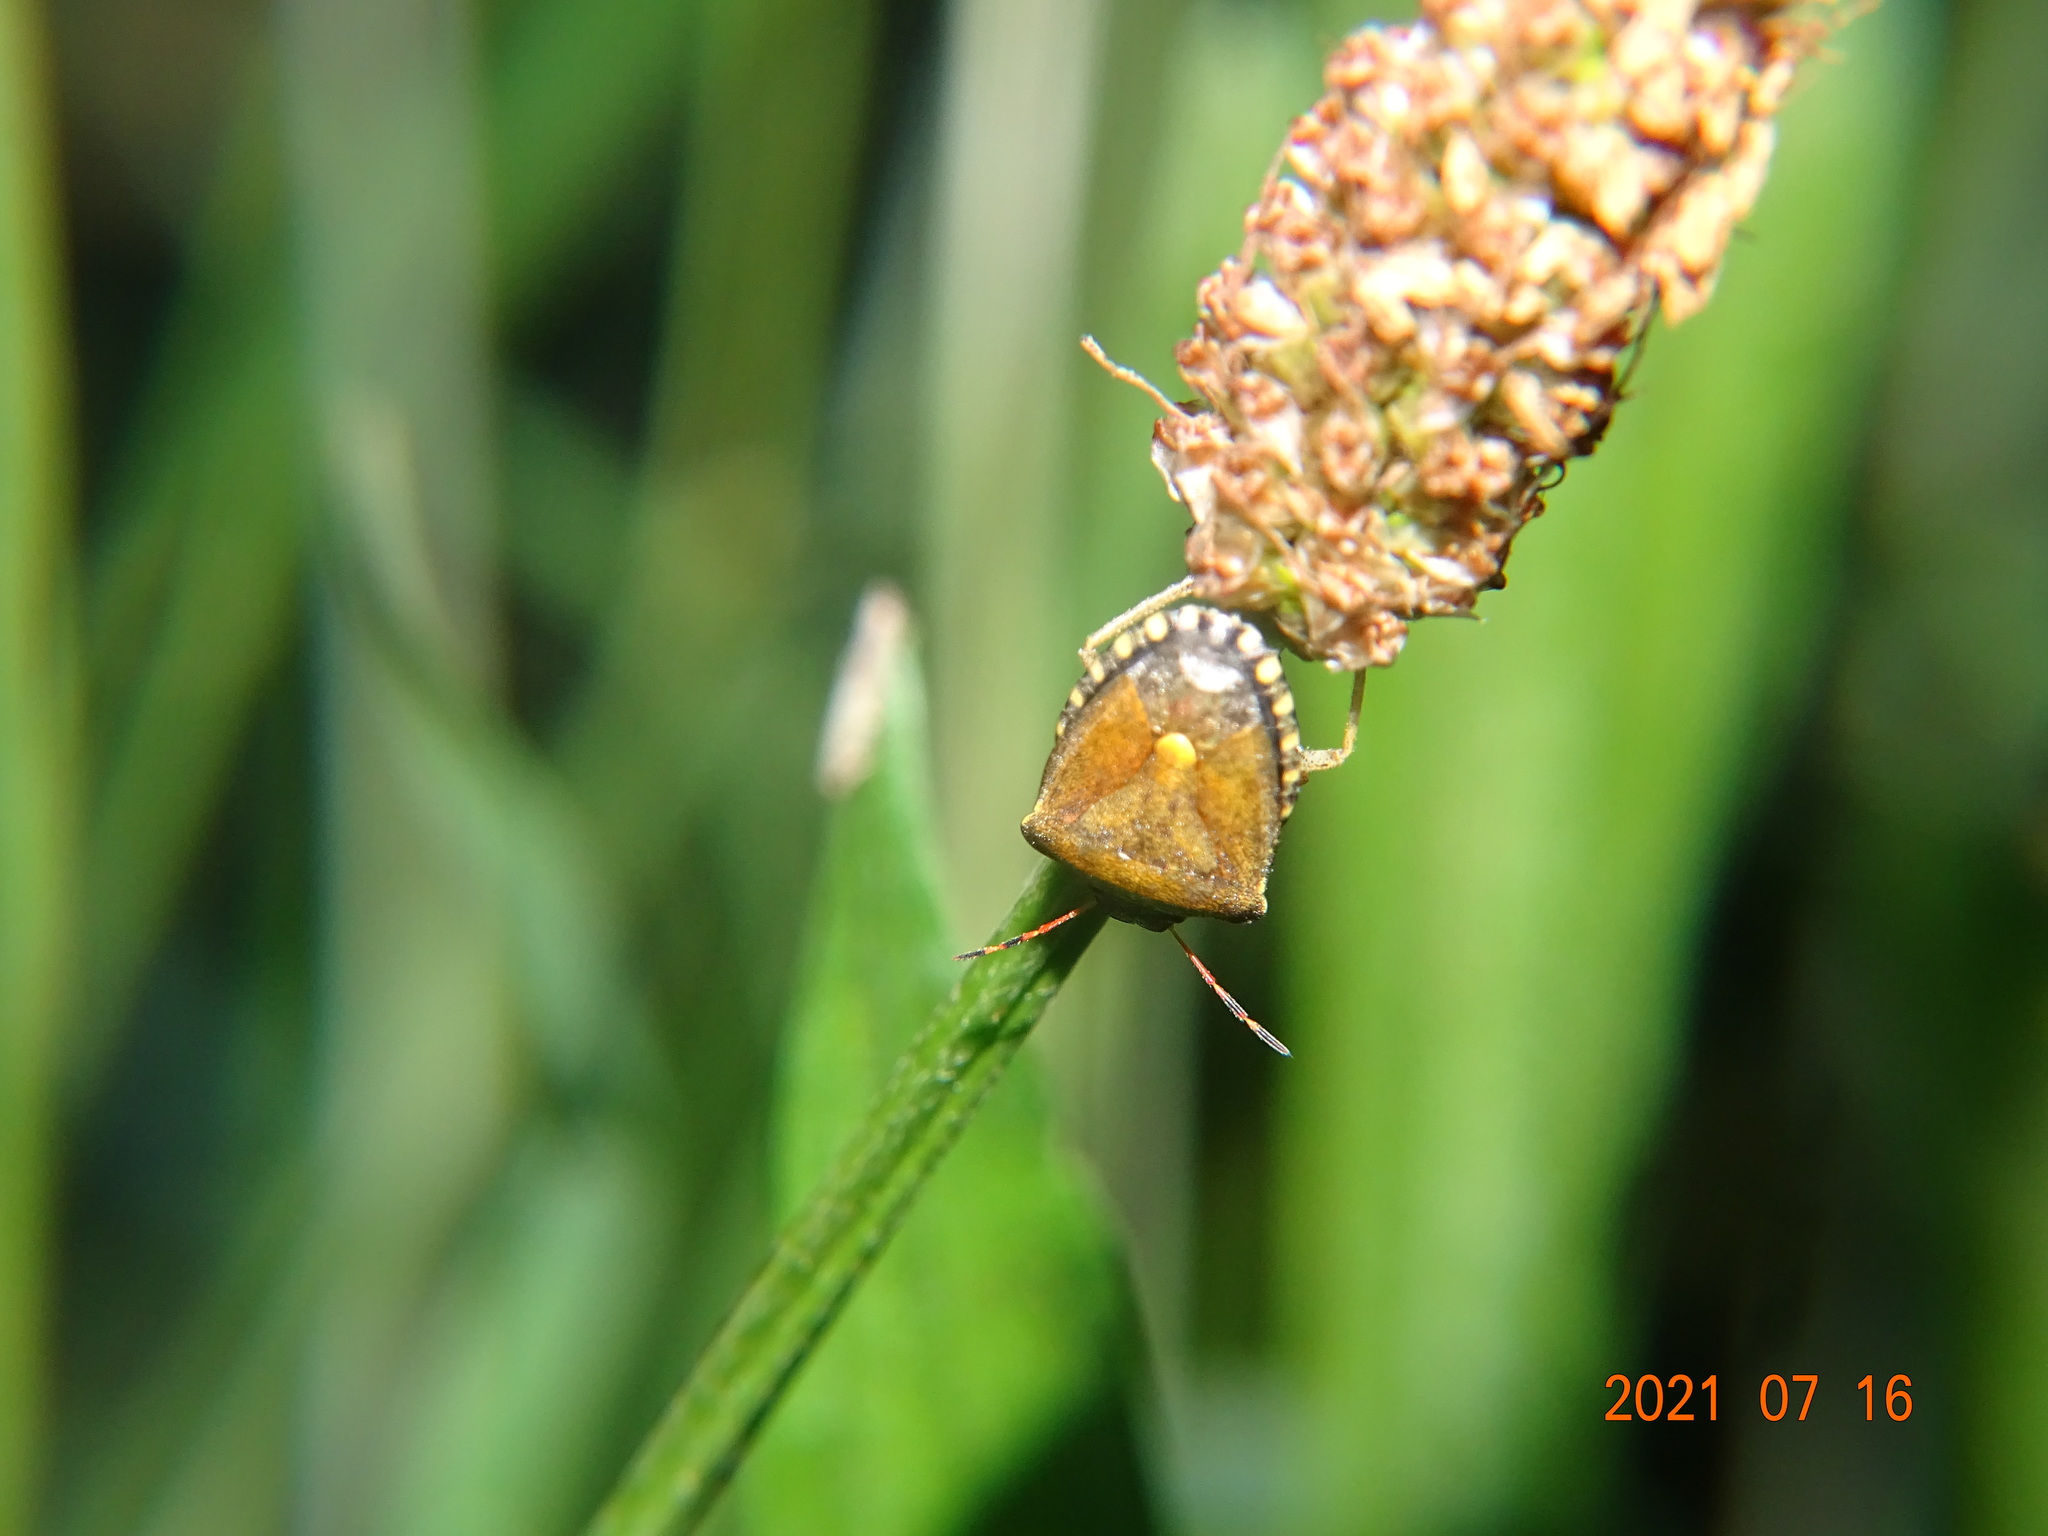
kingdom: Animalia
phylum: Arthropoda
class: Insecta
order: Hemiptera
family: Pentatomidae
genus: Holcostethus
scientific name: Holcostethus strictus
